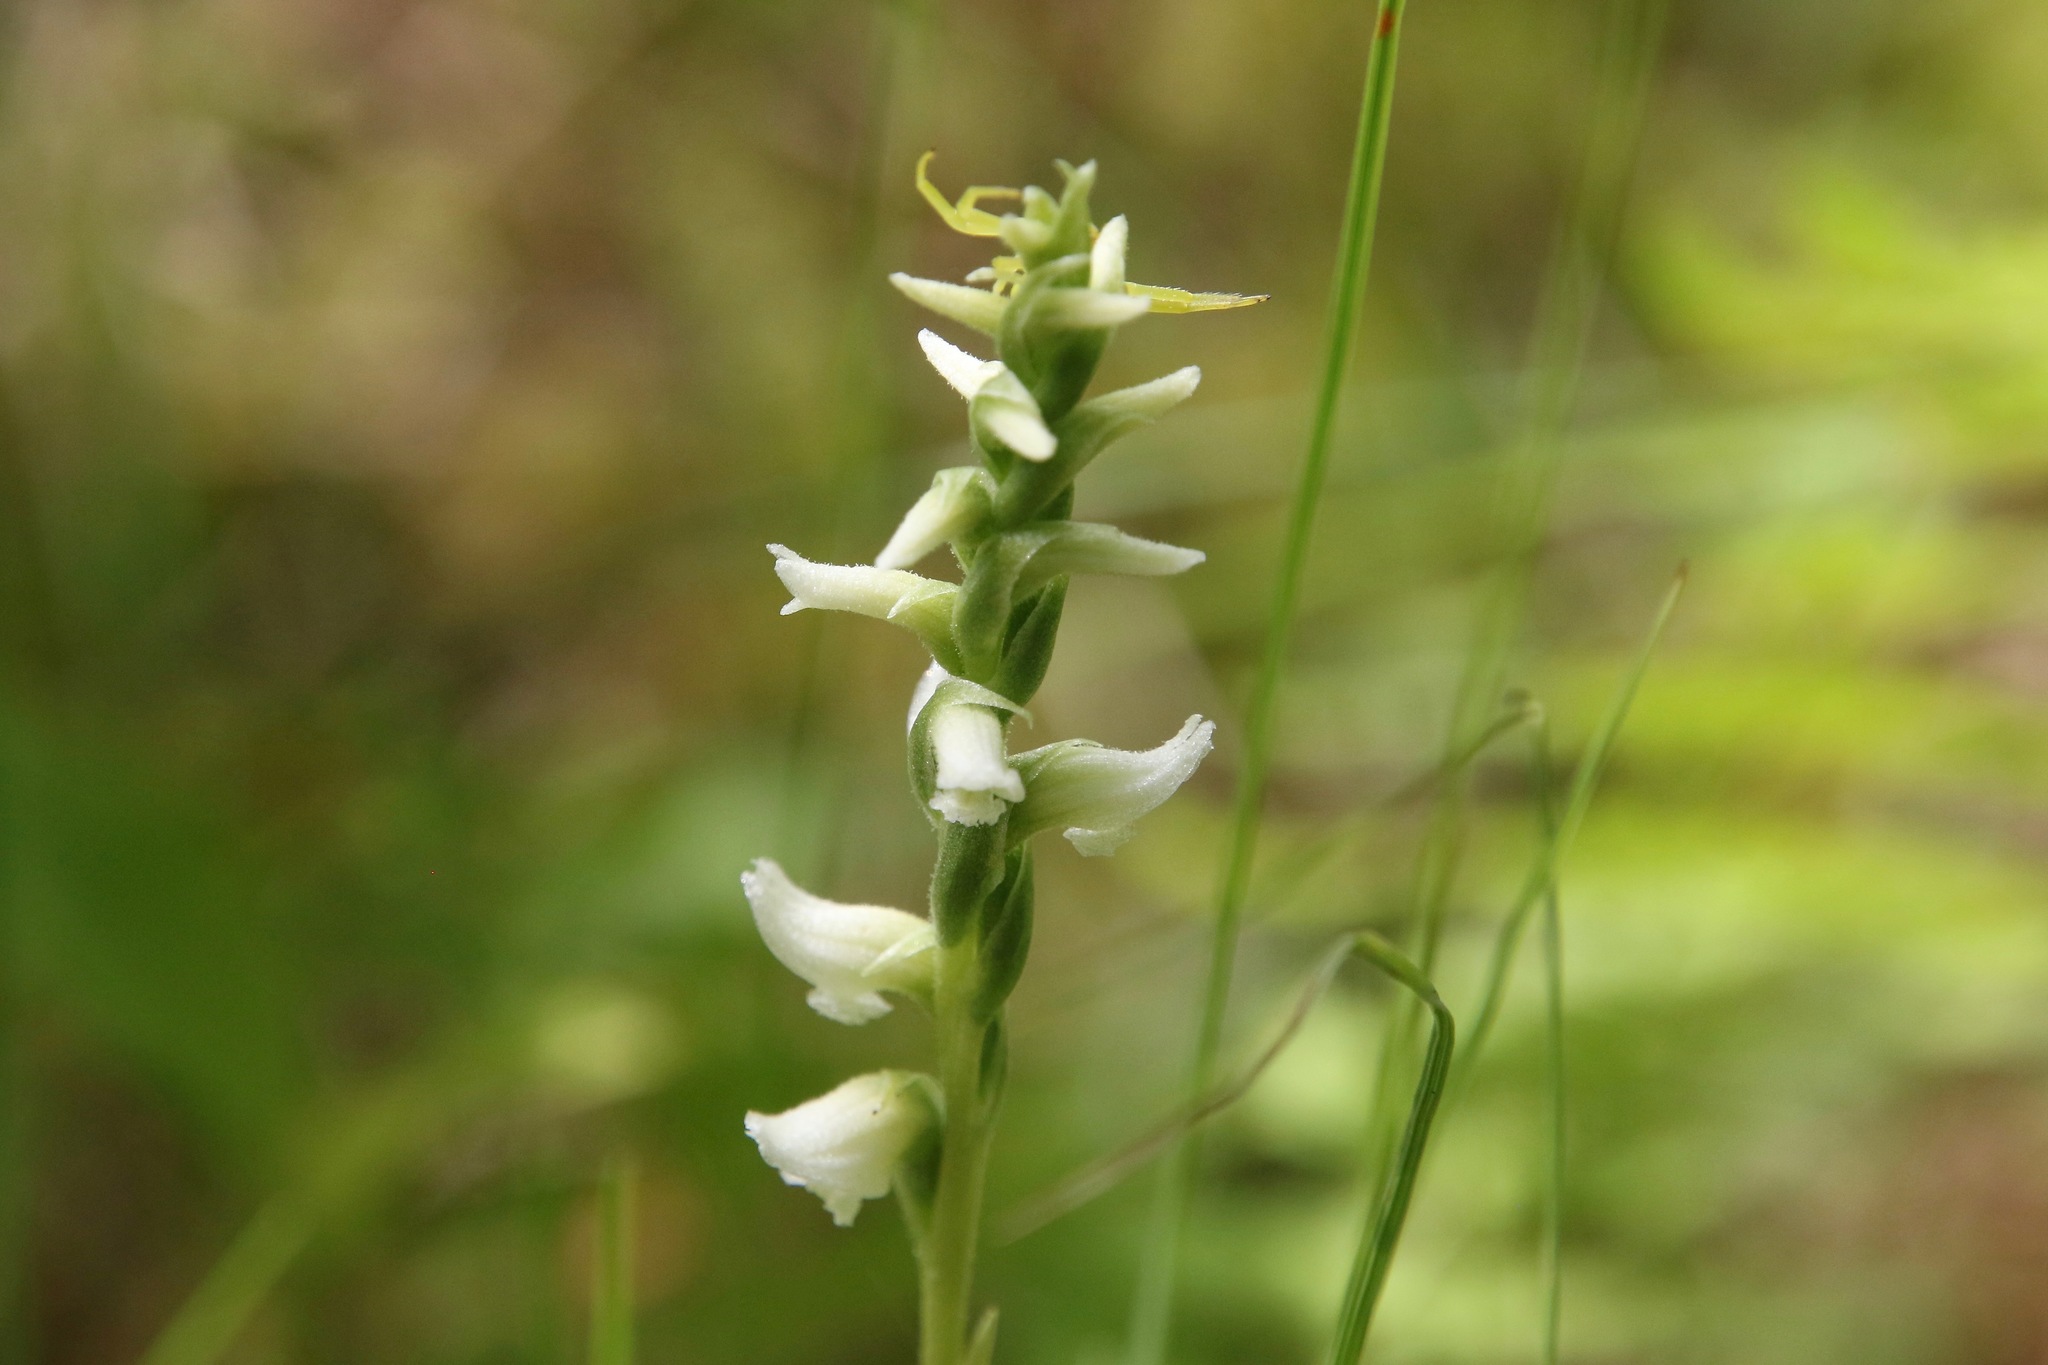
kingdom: Plantae
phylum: Tracheophyta
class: Liliopsida
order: Asparagales
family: Orchidaceae
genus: Spiranthes
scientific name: Spiranthes romanzoffiana
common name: Irish lady's-tresses
